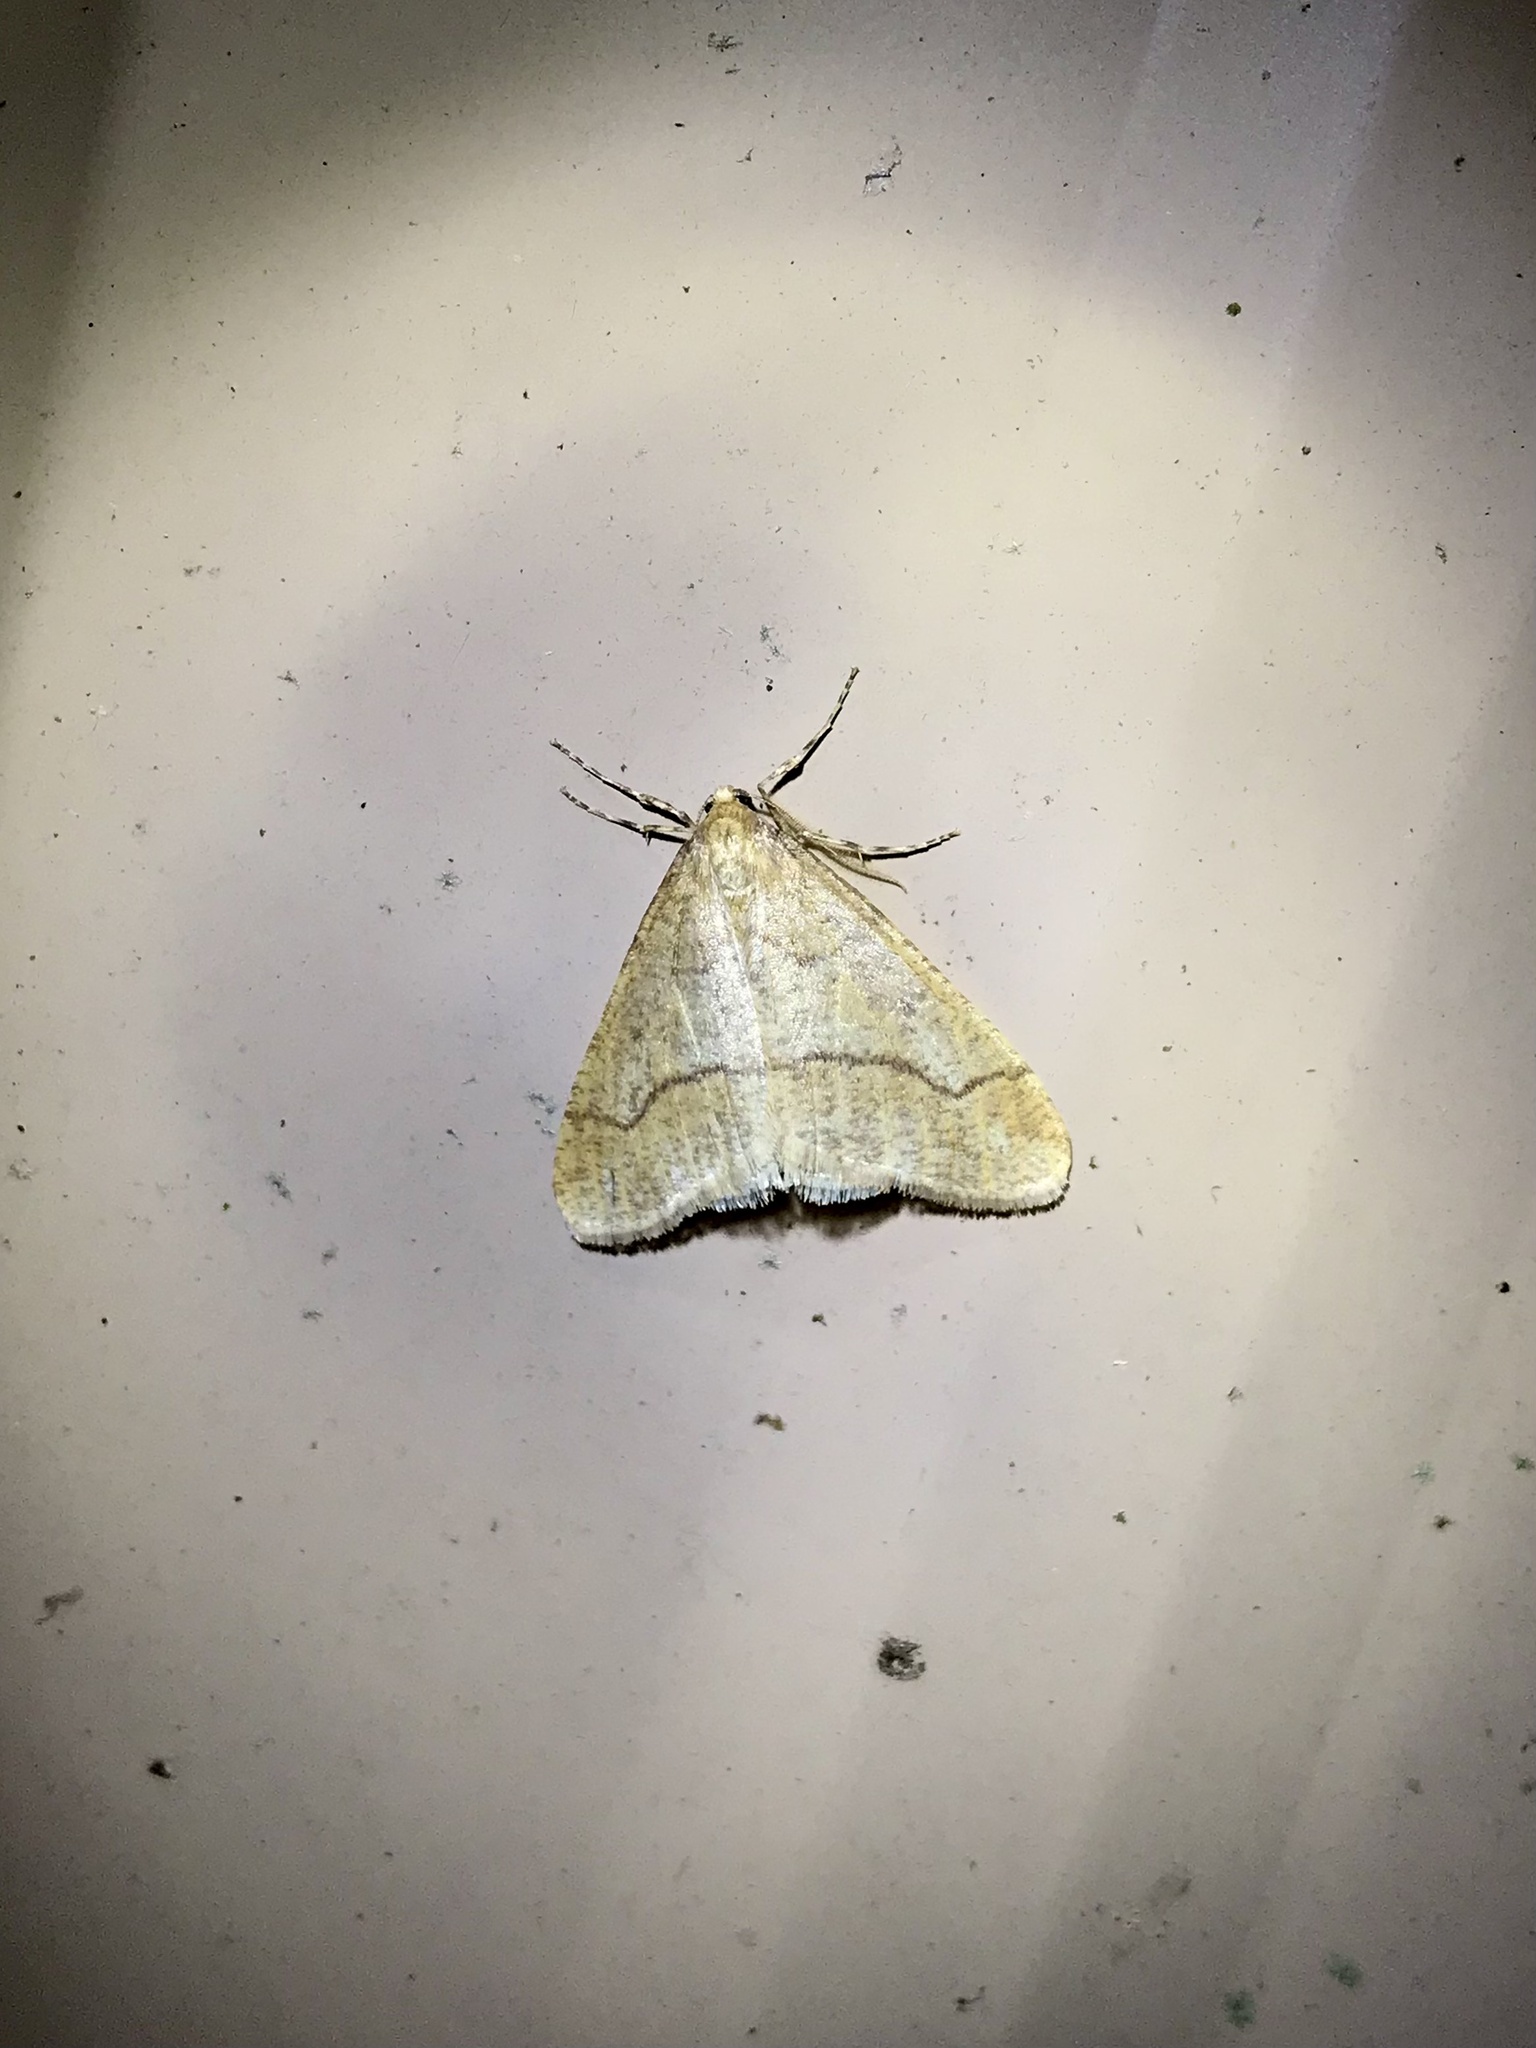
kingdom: Animalia
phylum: Arthropoda
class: Insecta
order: Lepidoptera
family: Geometridae
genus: Erannis
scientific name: Erannis tiliaria
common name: Linden looper
